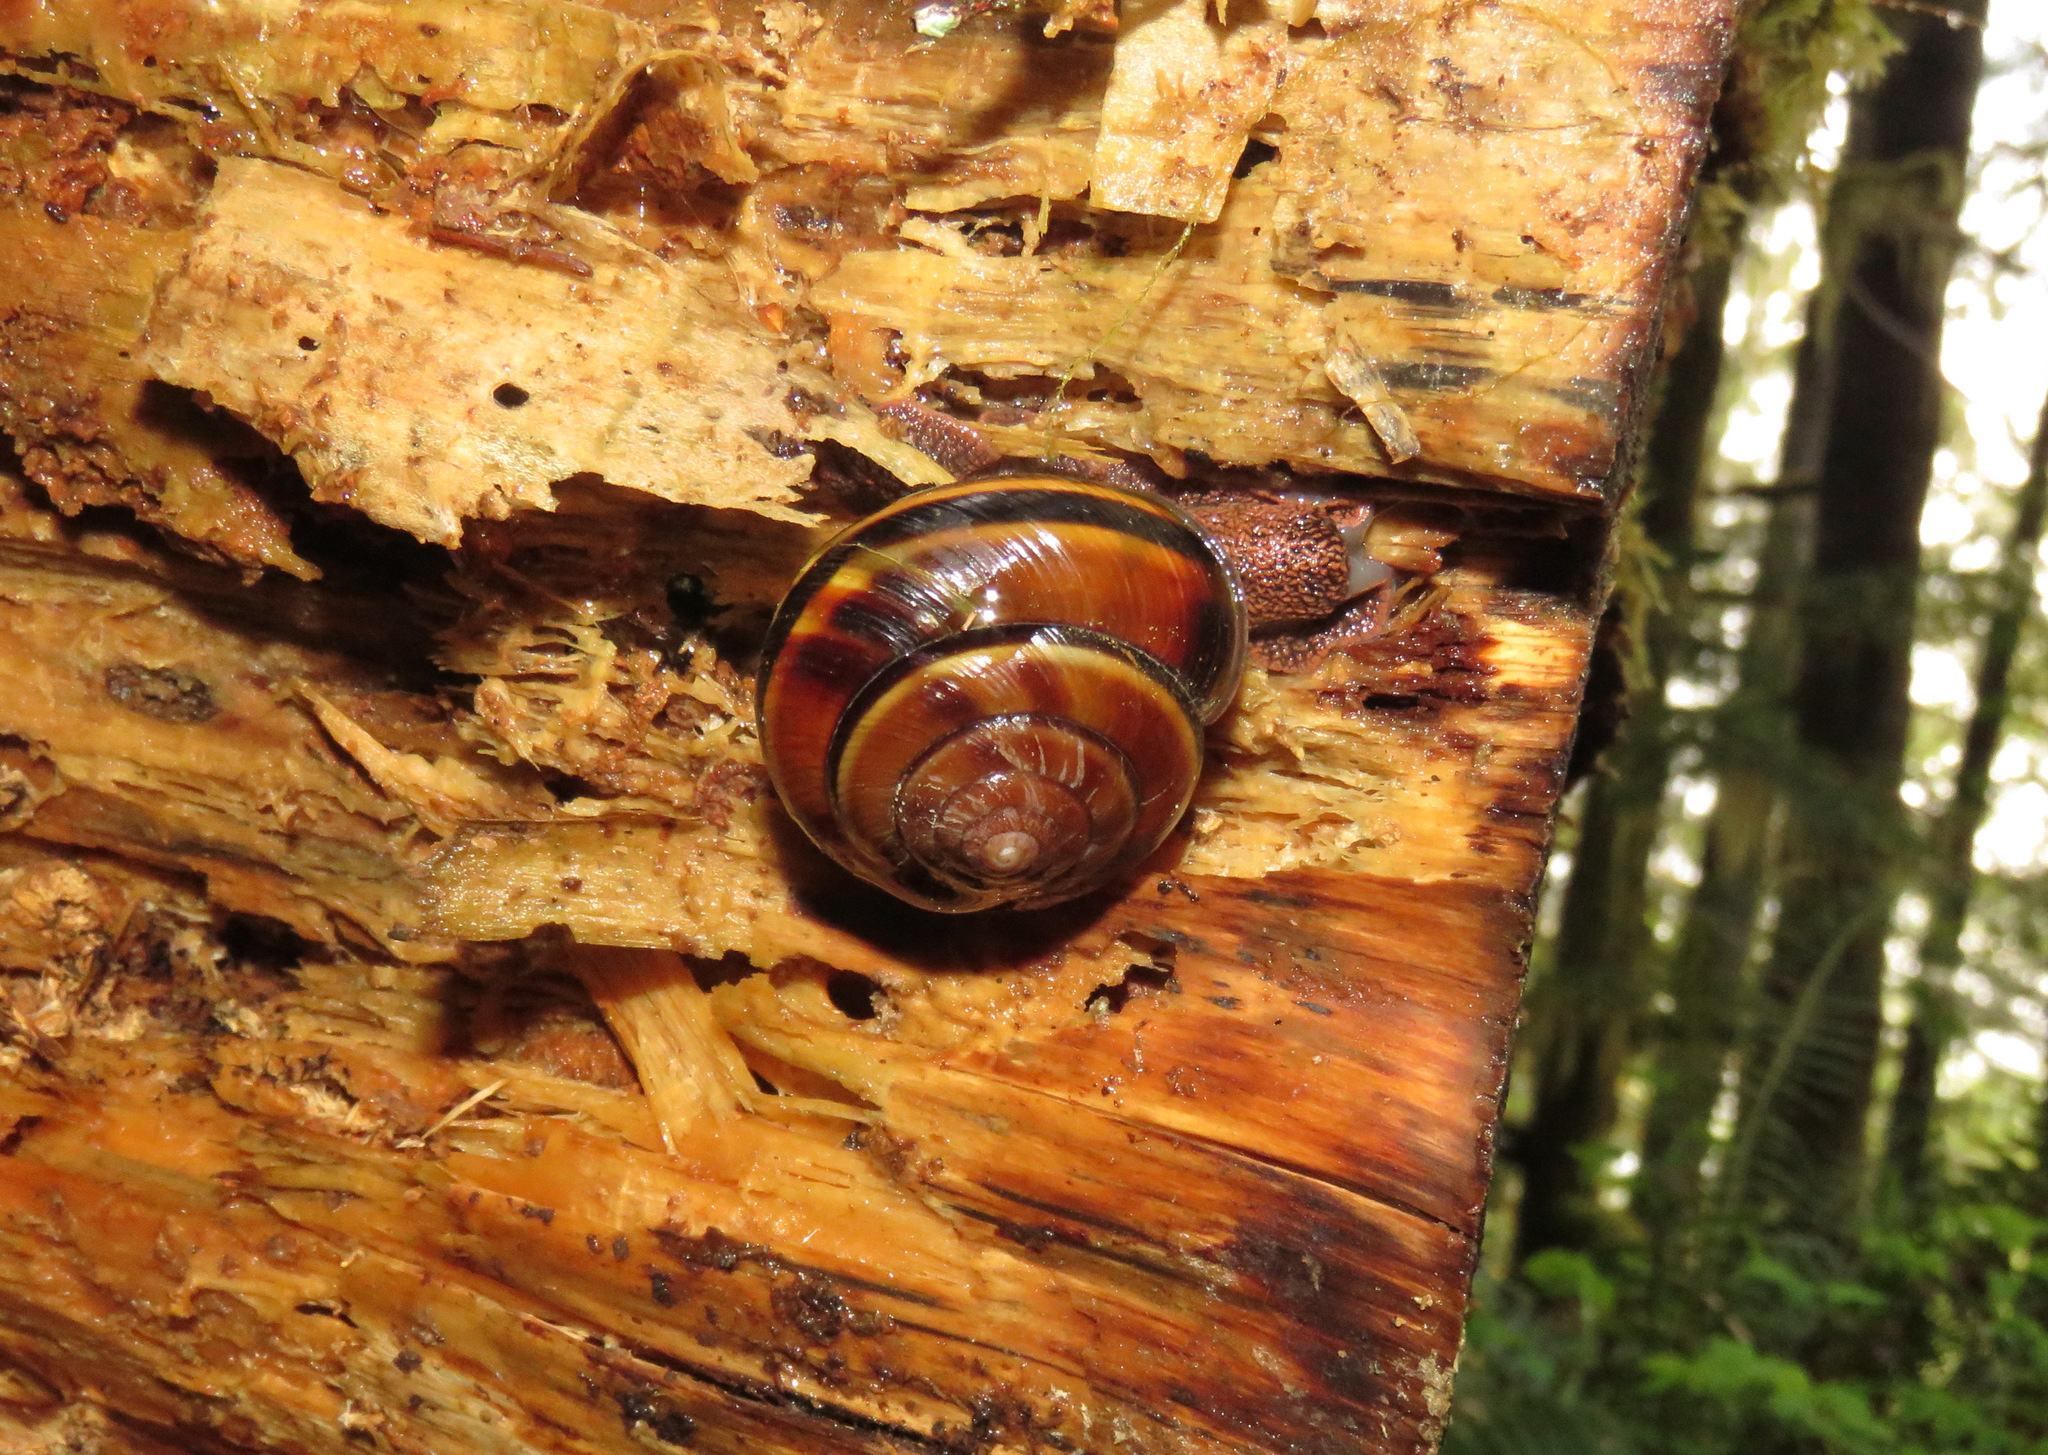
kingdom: Animalia
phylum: Mollusca
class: Gastropoda
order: Stylommatophora
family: Xanthonychidae
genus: Monadenia
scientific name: Monadenia fidelis
